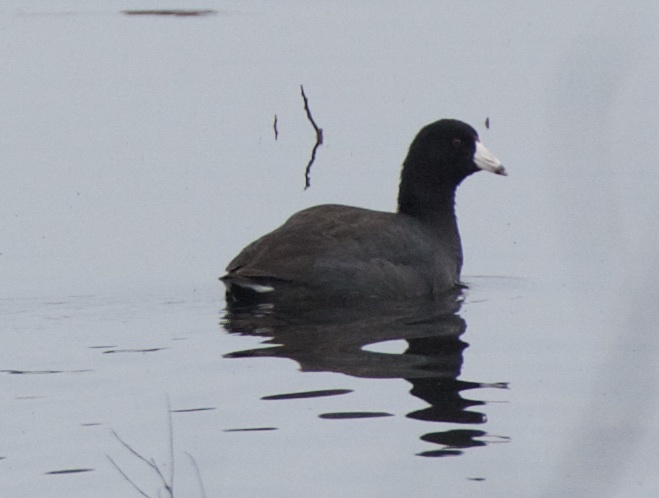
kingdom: Animalia
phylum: Chordata
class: Aves
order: Gruiformes
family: Rallidae
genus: Fulica
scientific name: Fulica americana
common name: American coot
